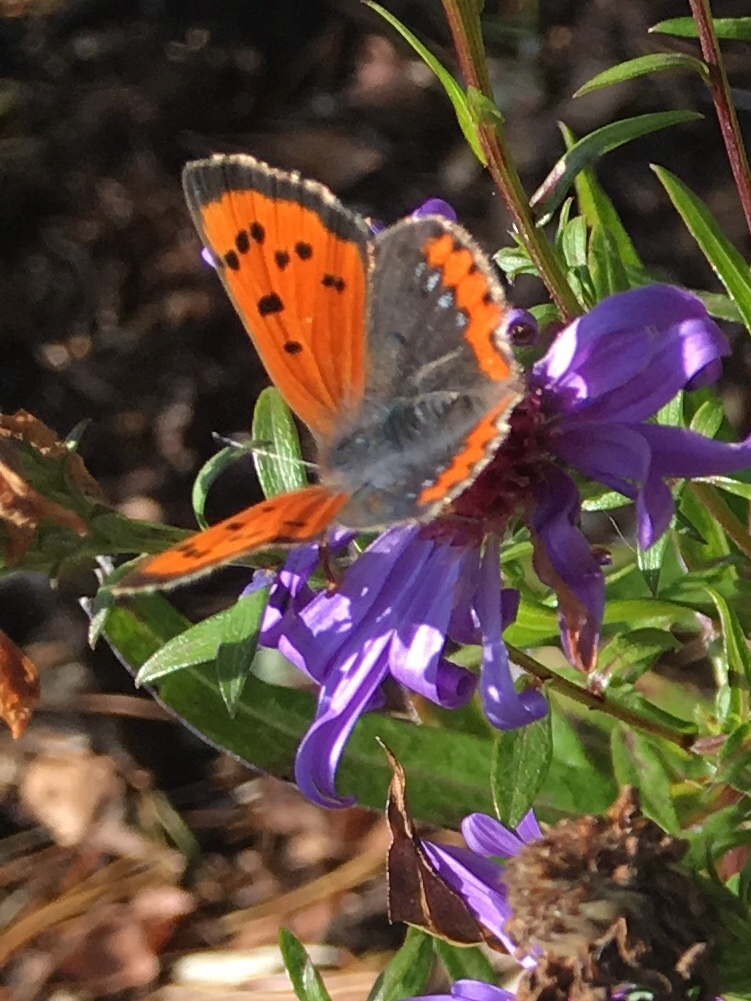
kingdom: Animalia
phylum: Arthropoda
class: Insecta
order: Lepidoptera
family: Lycaenidae
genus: Lycaena
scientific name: Lycaena phlaeas
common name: Small copper
